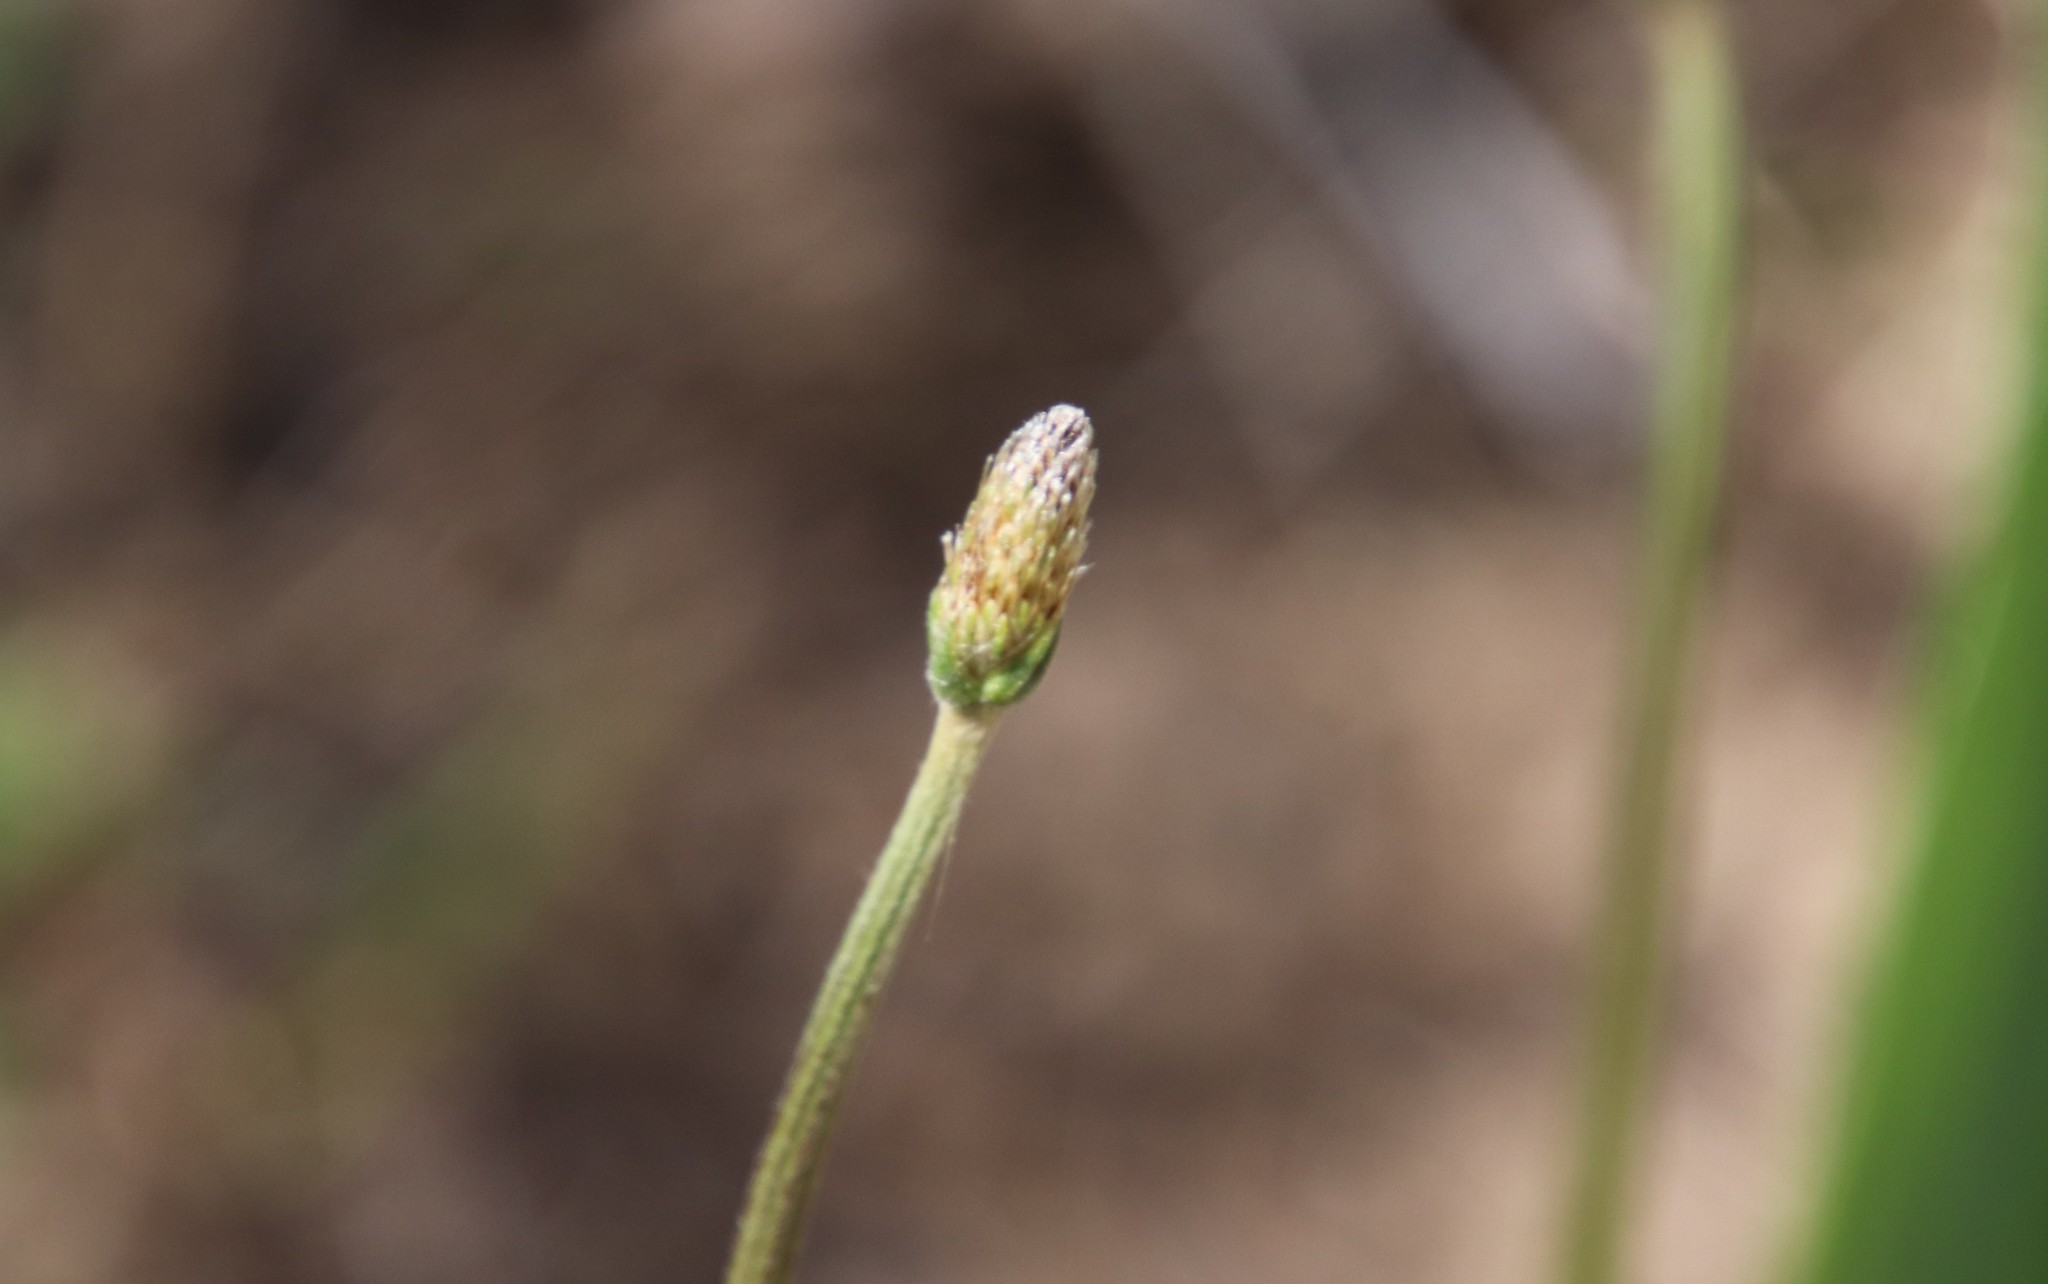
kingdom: Plantae
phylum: Tracheophyta
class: Magnoliopsida
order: Lamiales
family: Plantaginaceae
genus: Plantago
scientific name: Plantago lanceolata
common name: Ribwort plantain
